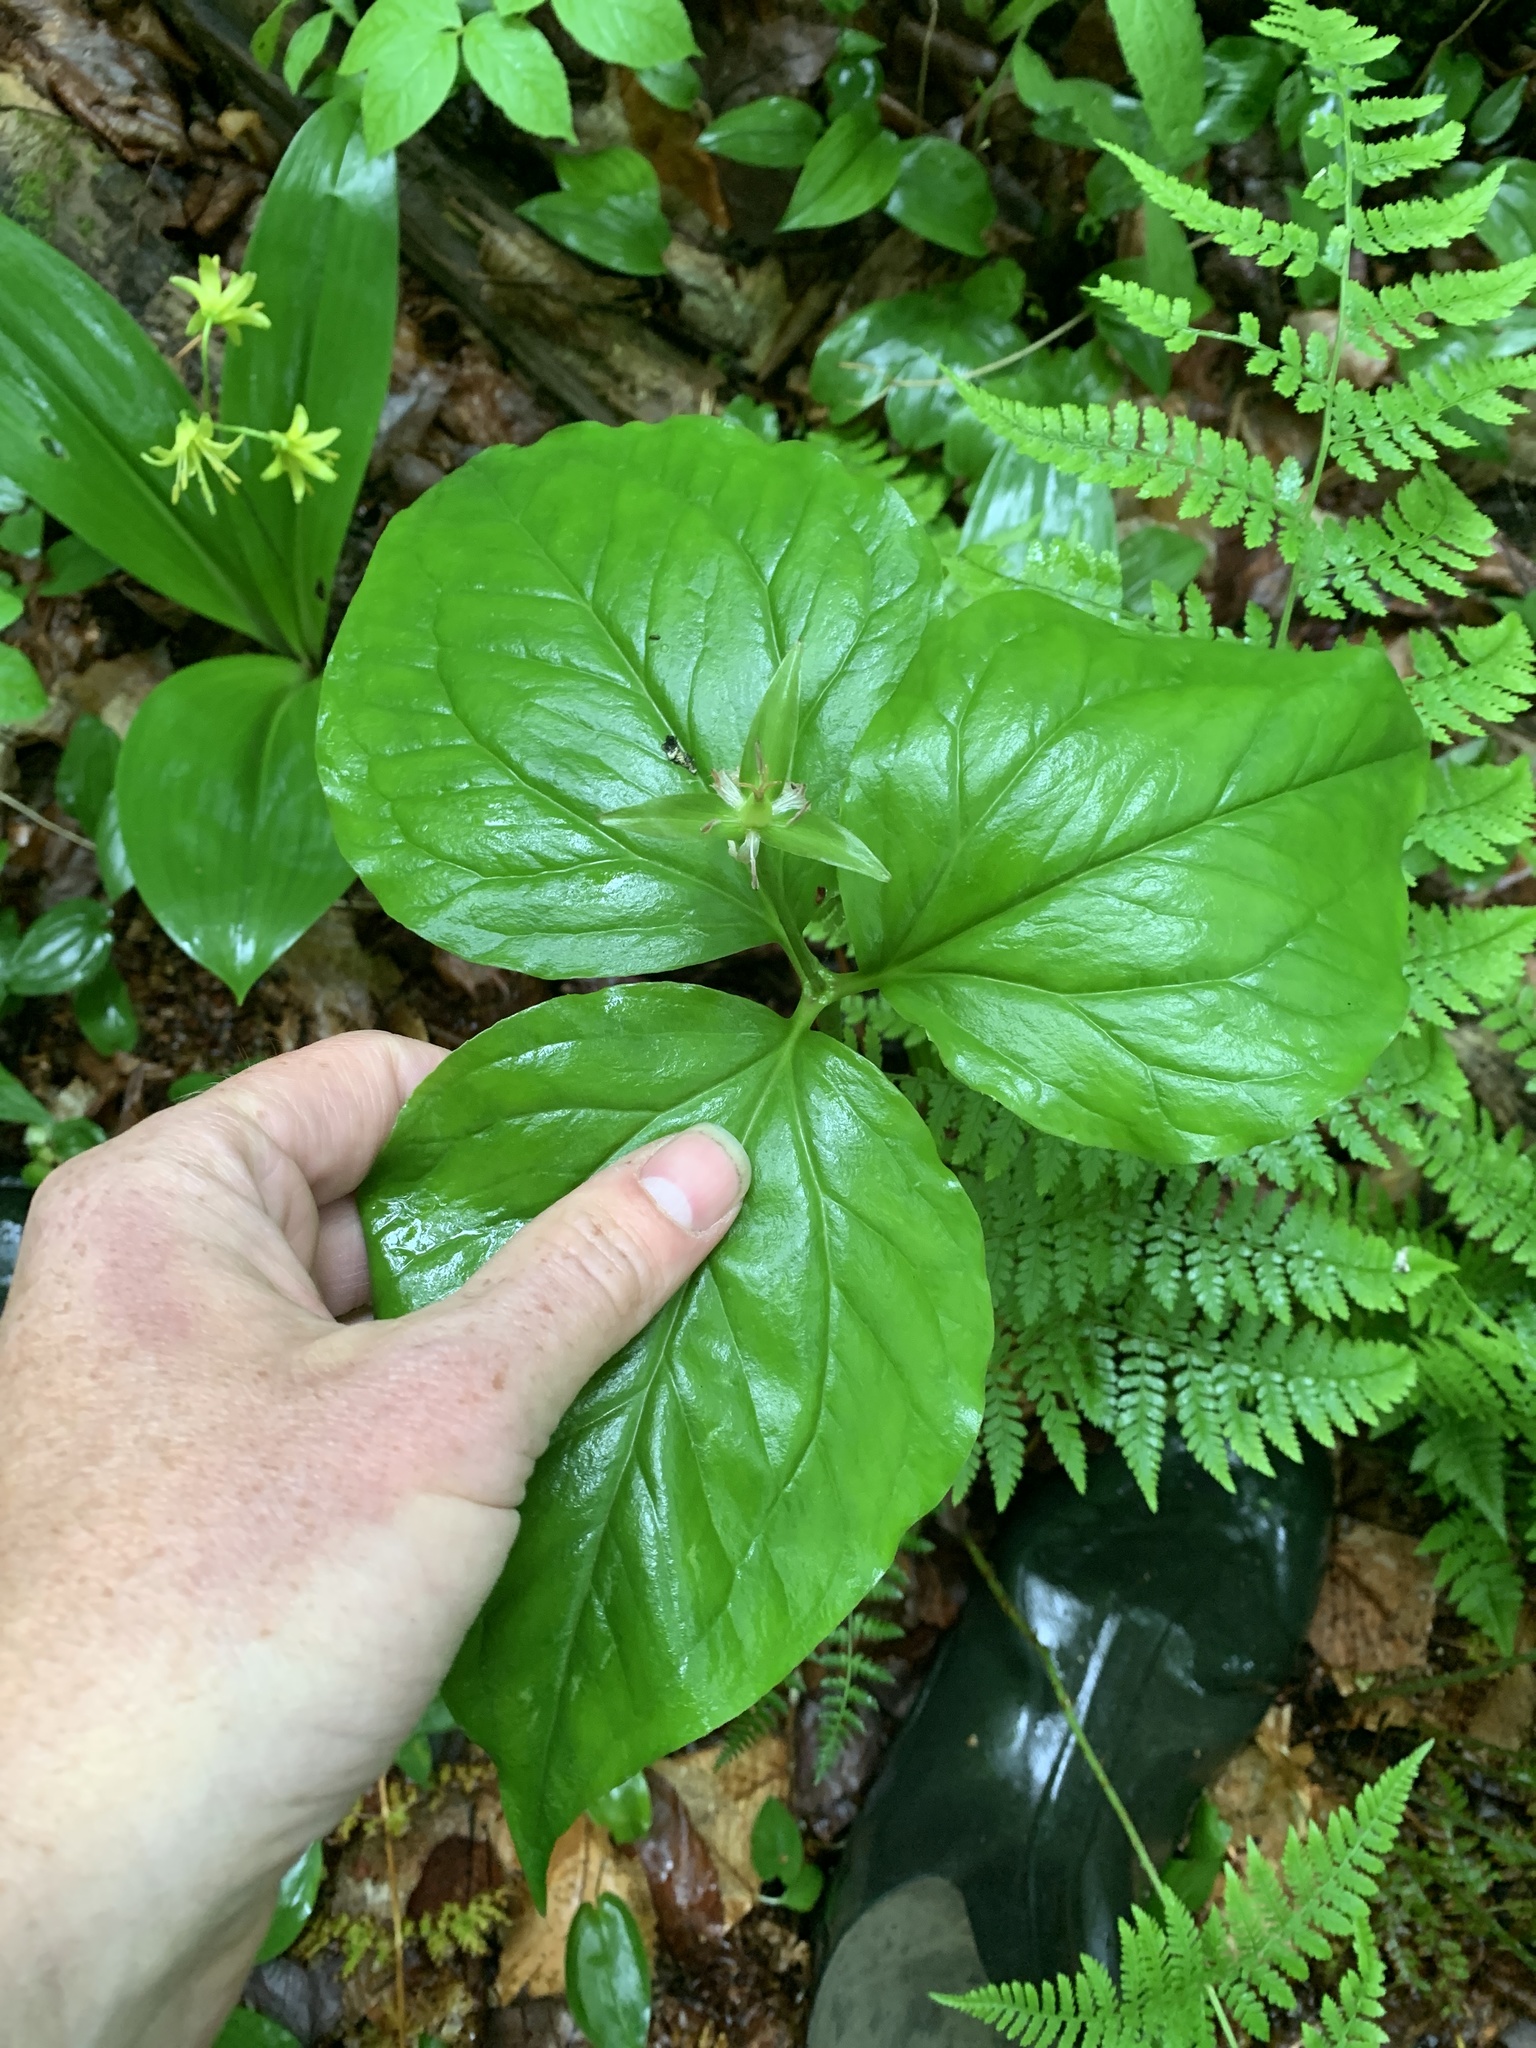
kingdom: Plantae
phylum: Tracheophyta
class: Liliopsida
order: Liliales
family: Melanthiaceae
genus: Trillium
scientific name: Trillium undulatum
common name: Paint trillium
